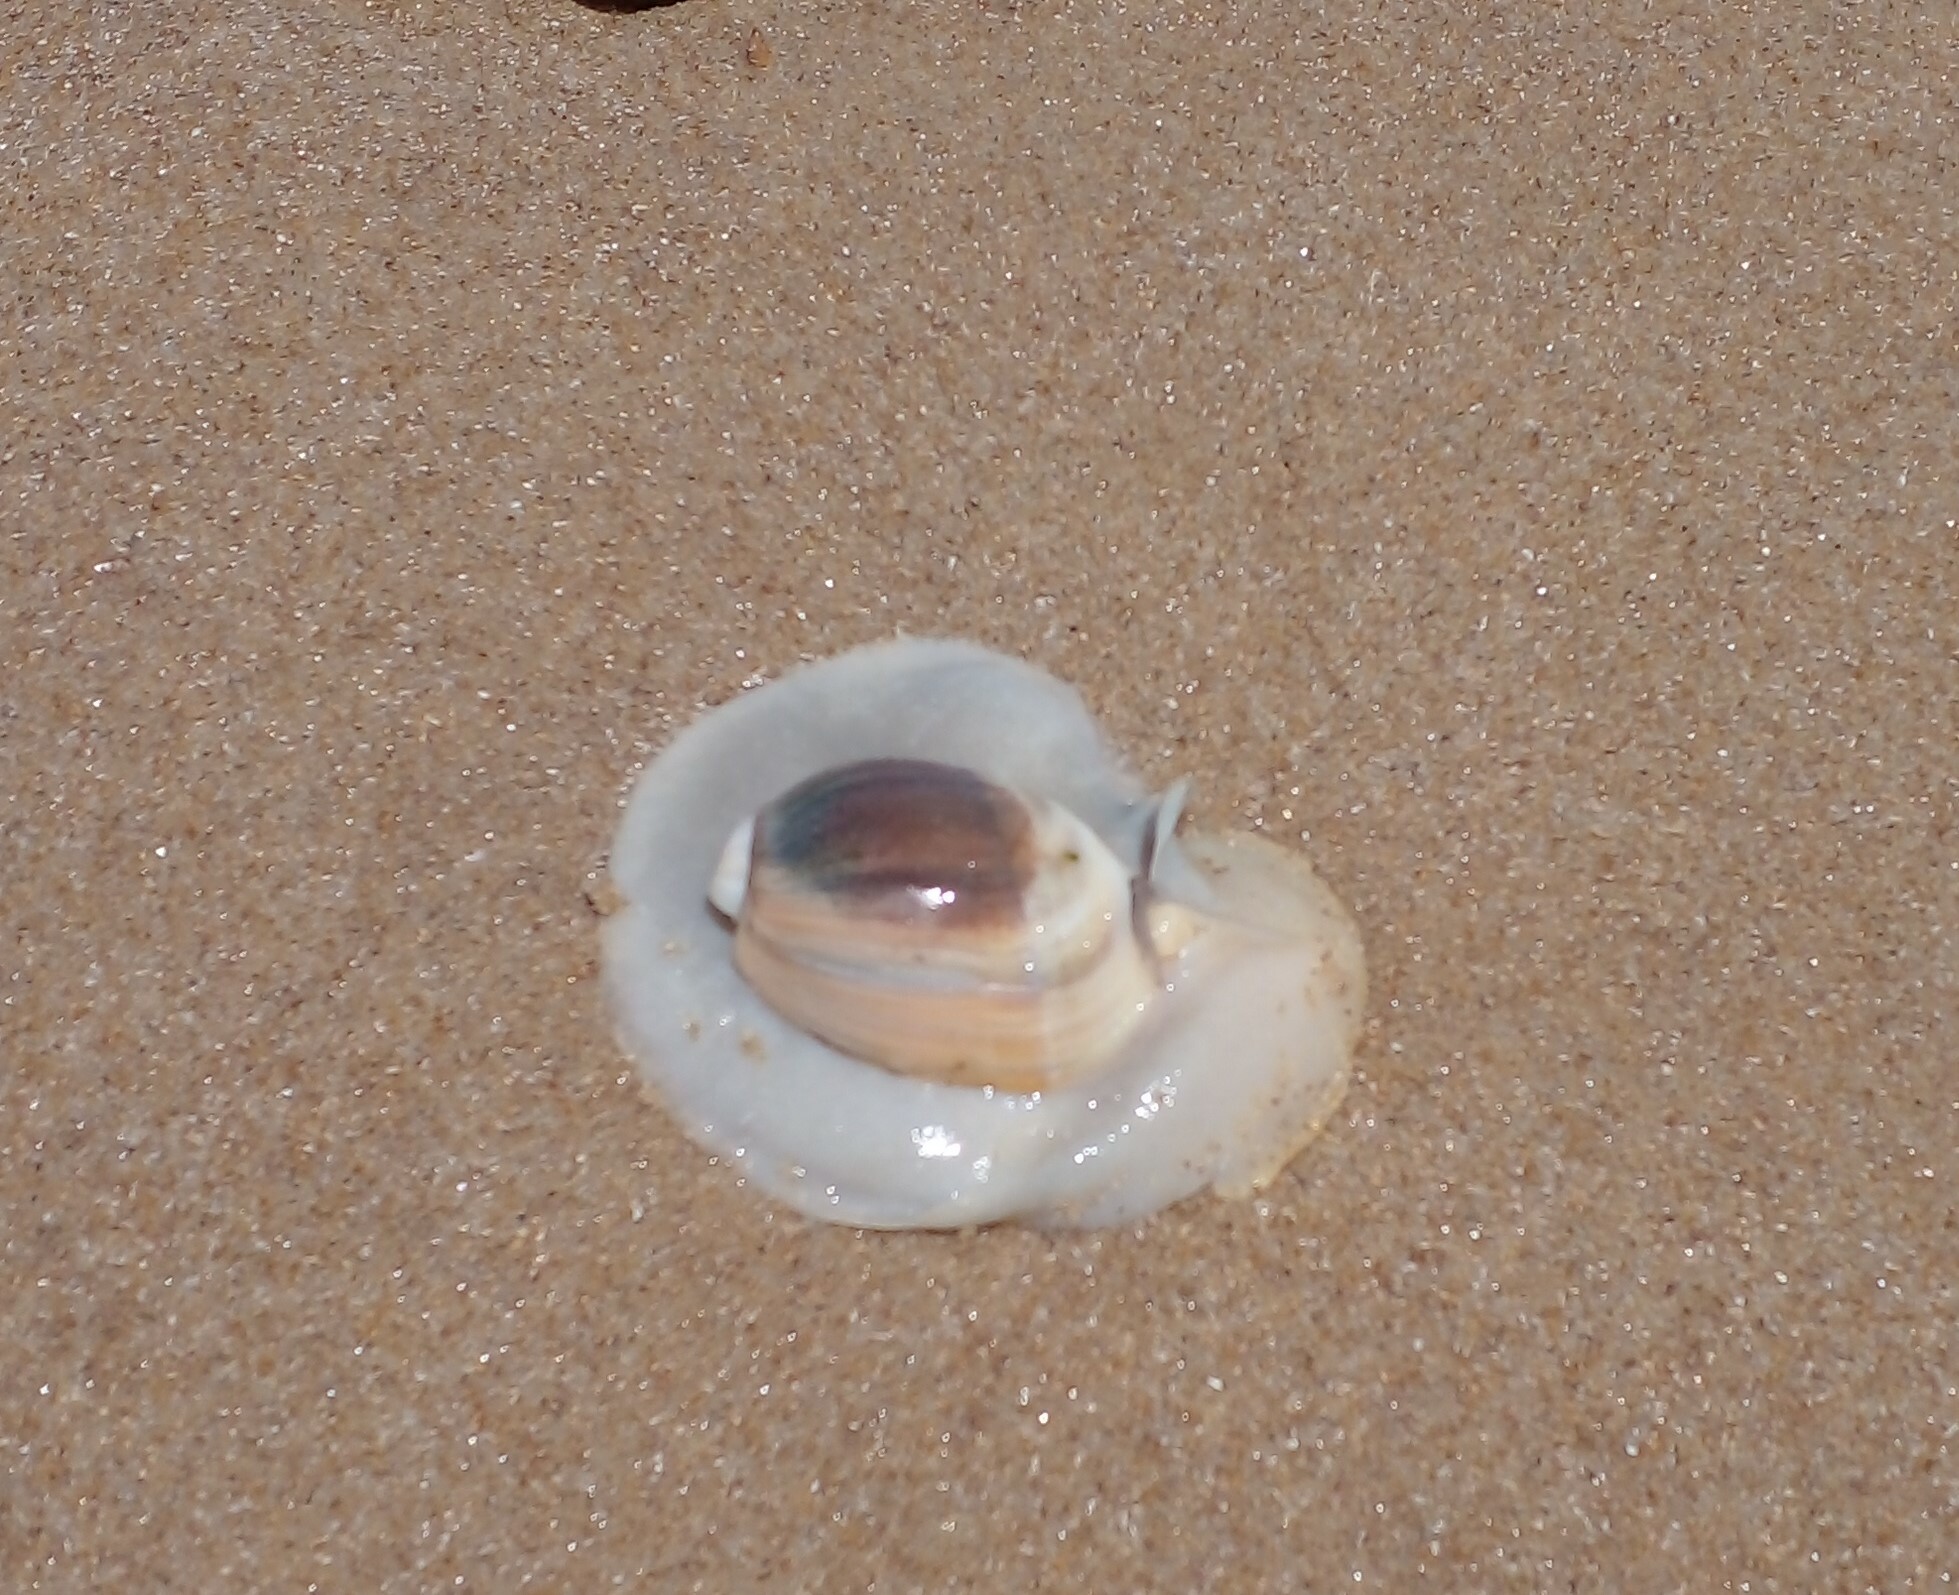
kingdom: Animalia
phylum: Mollusca
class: Gastropoda
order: Neogastropoda
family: Olividae
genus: Olivancillaria
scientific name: Olivancillaria auricularia
